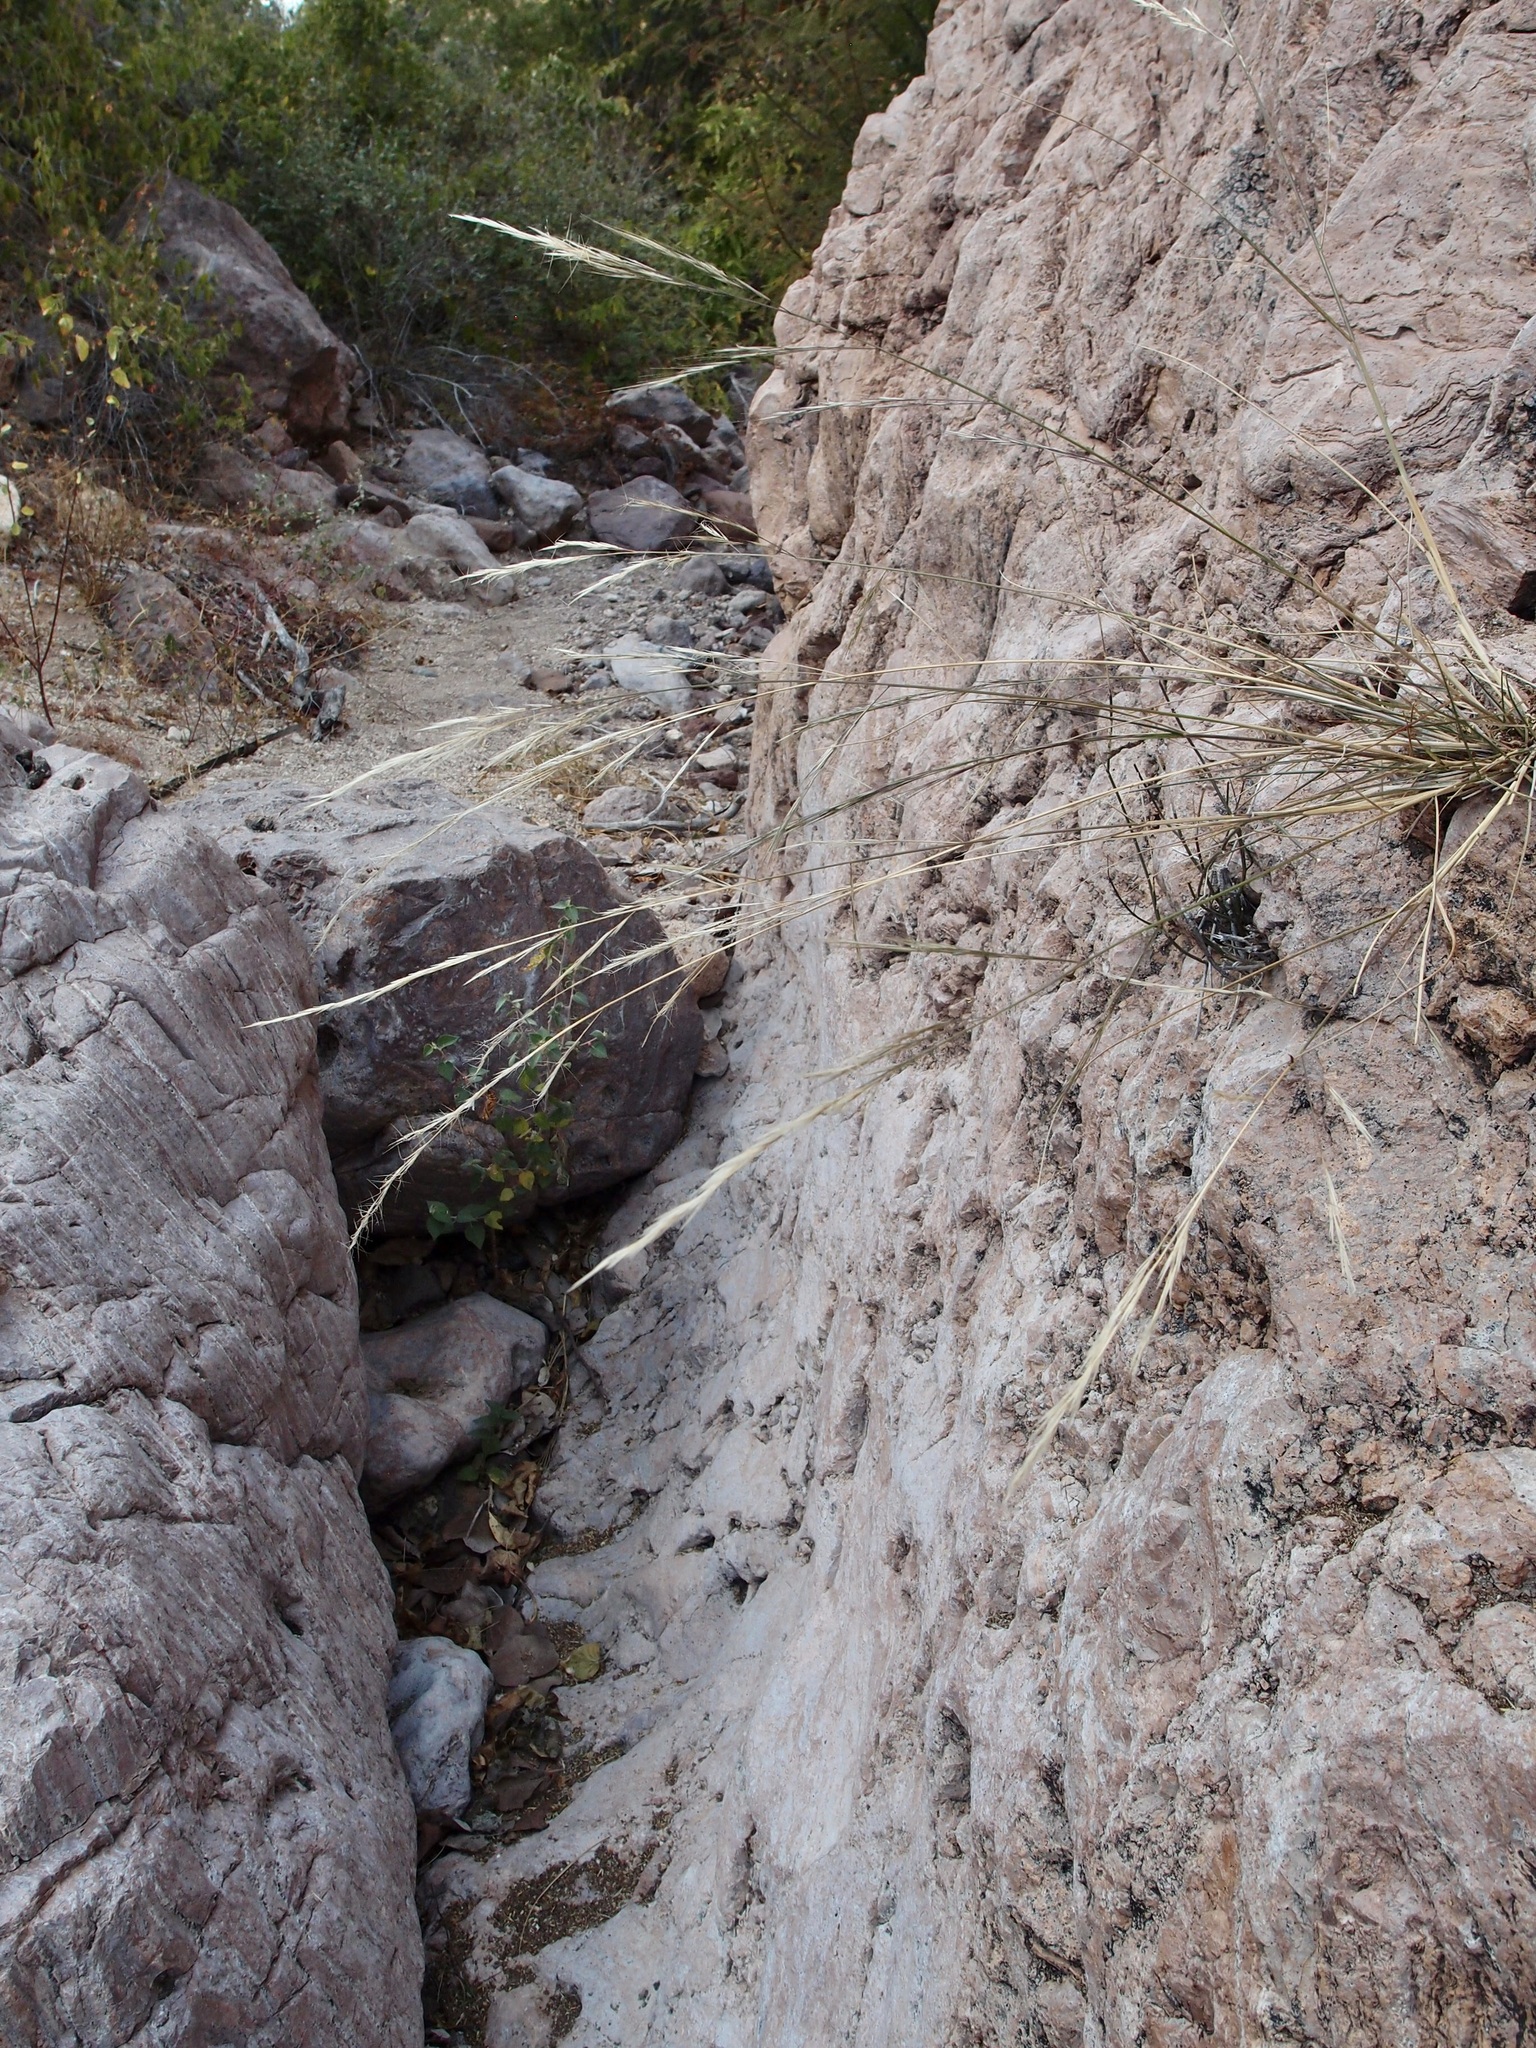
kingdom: Plantae
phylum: Tracheophyta
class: Liliopsida
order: Poales
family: Poaceae
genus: Aristida
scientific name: Aristida divaricata
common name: Poverty grass
